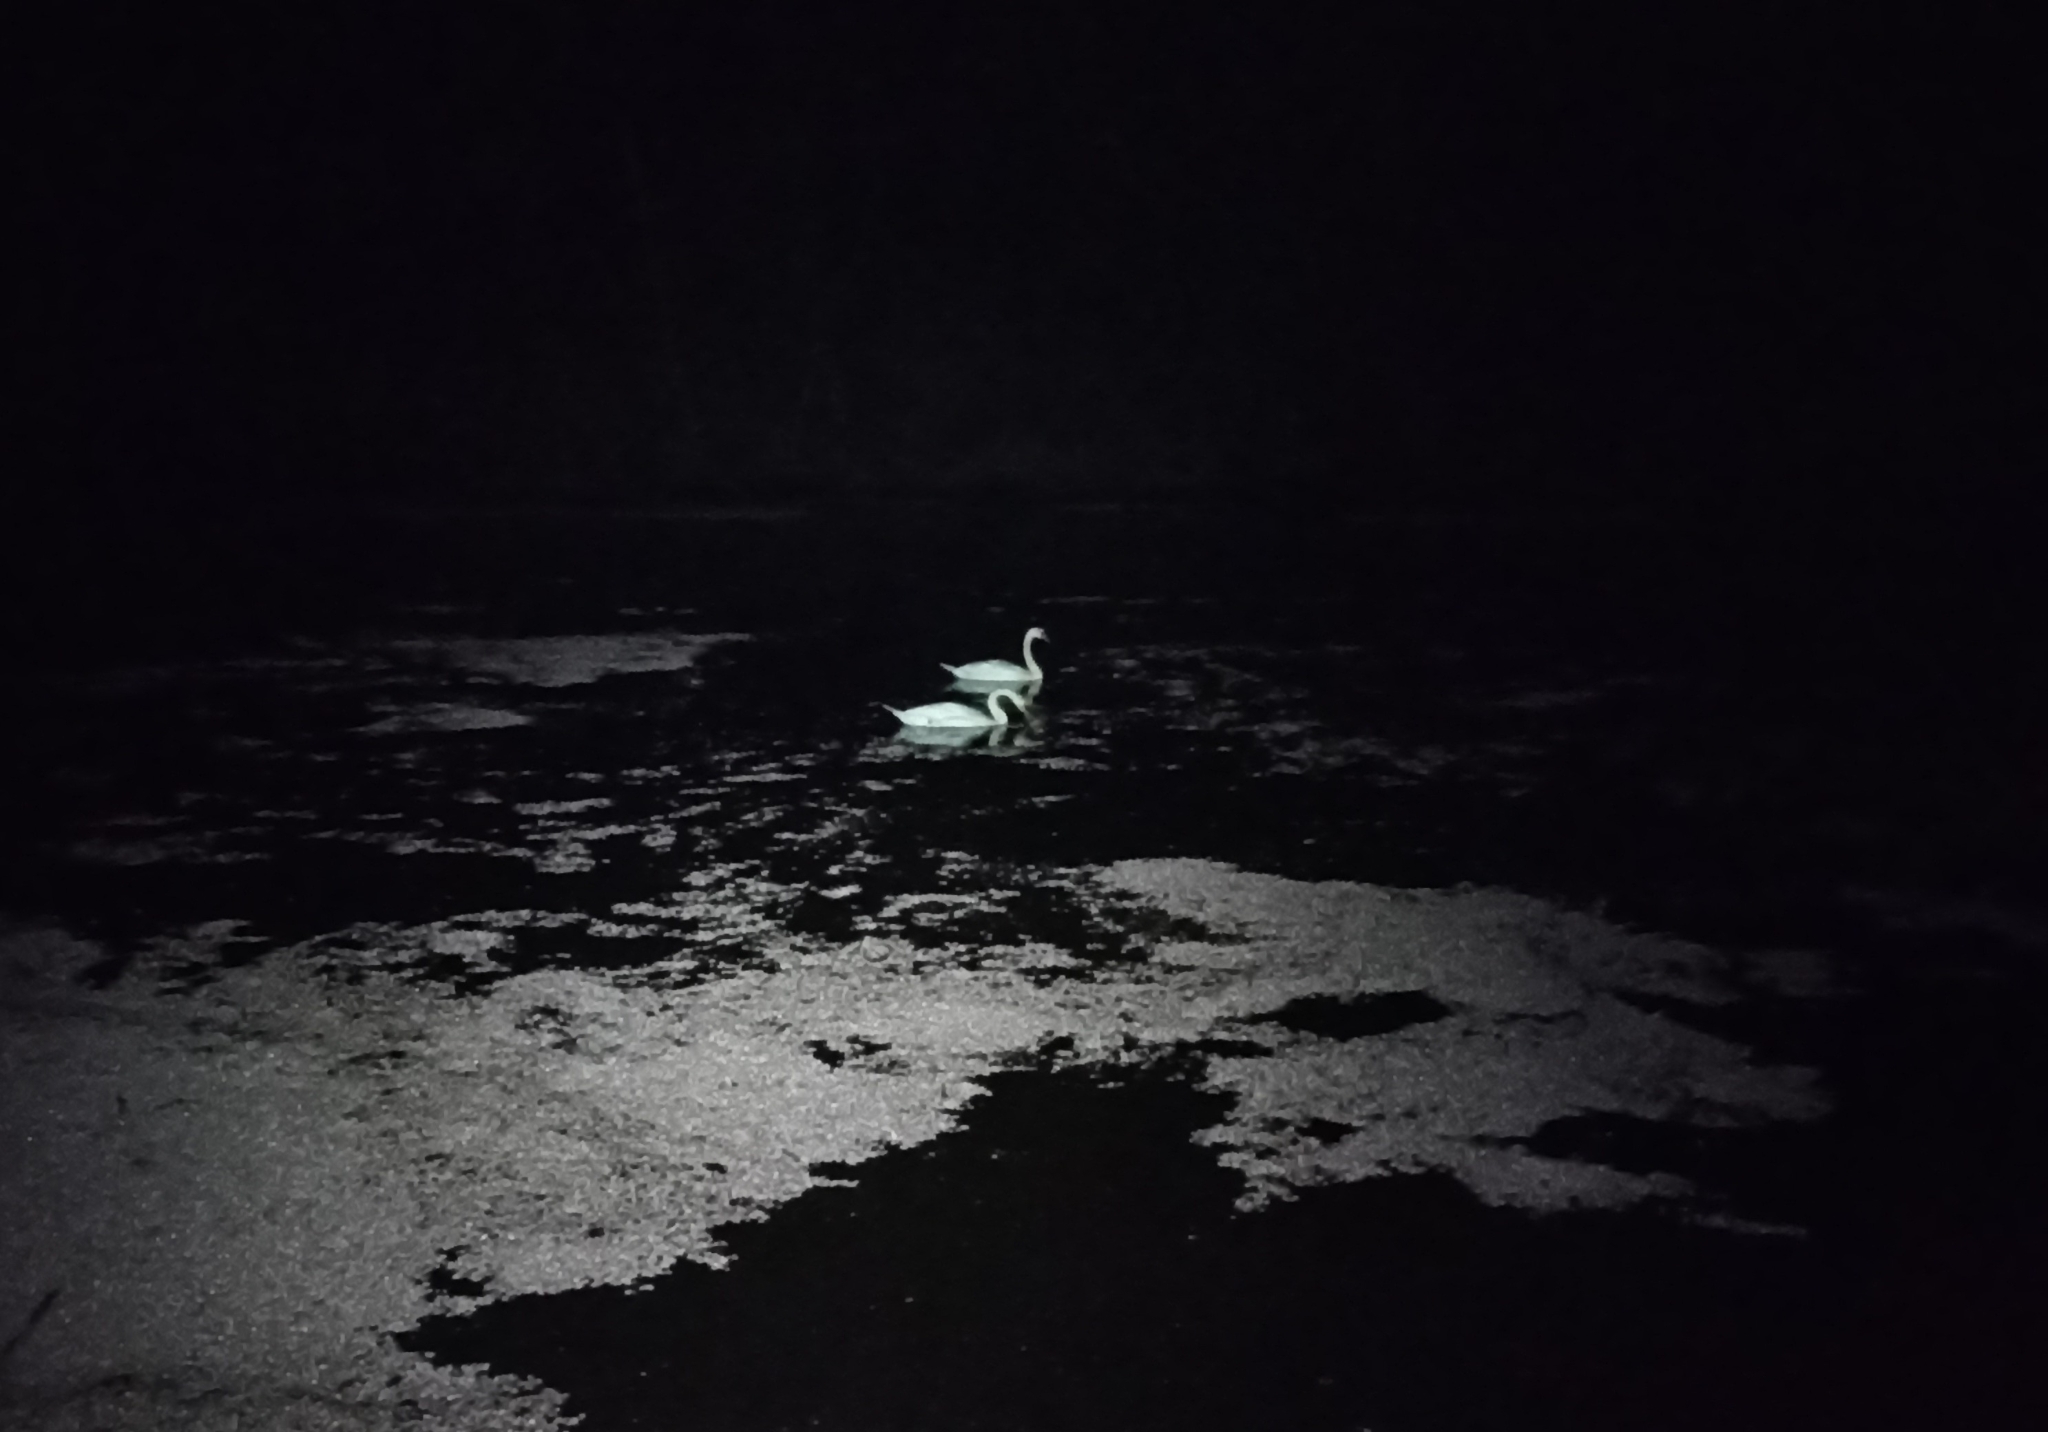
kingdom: Animalia
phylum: Chordata
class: Aves
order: Anseriformes
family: Anatidae
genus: Cygnus
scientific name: Cygnus olor
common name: Mute swan
